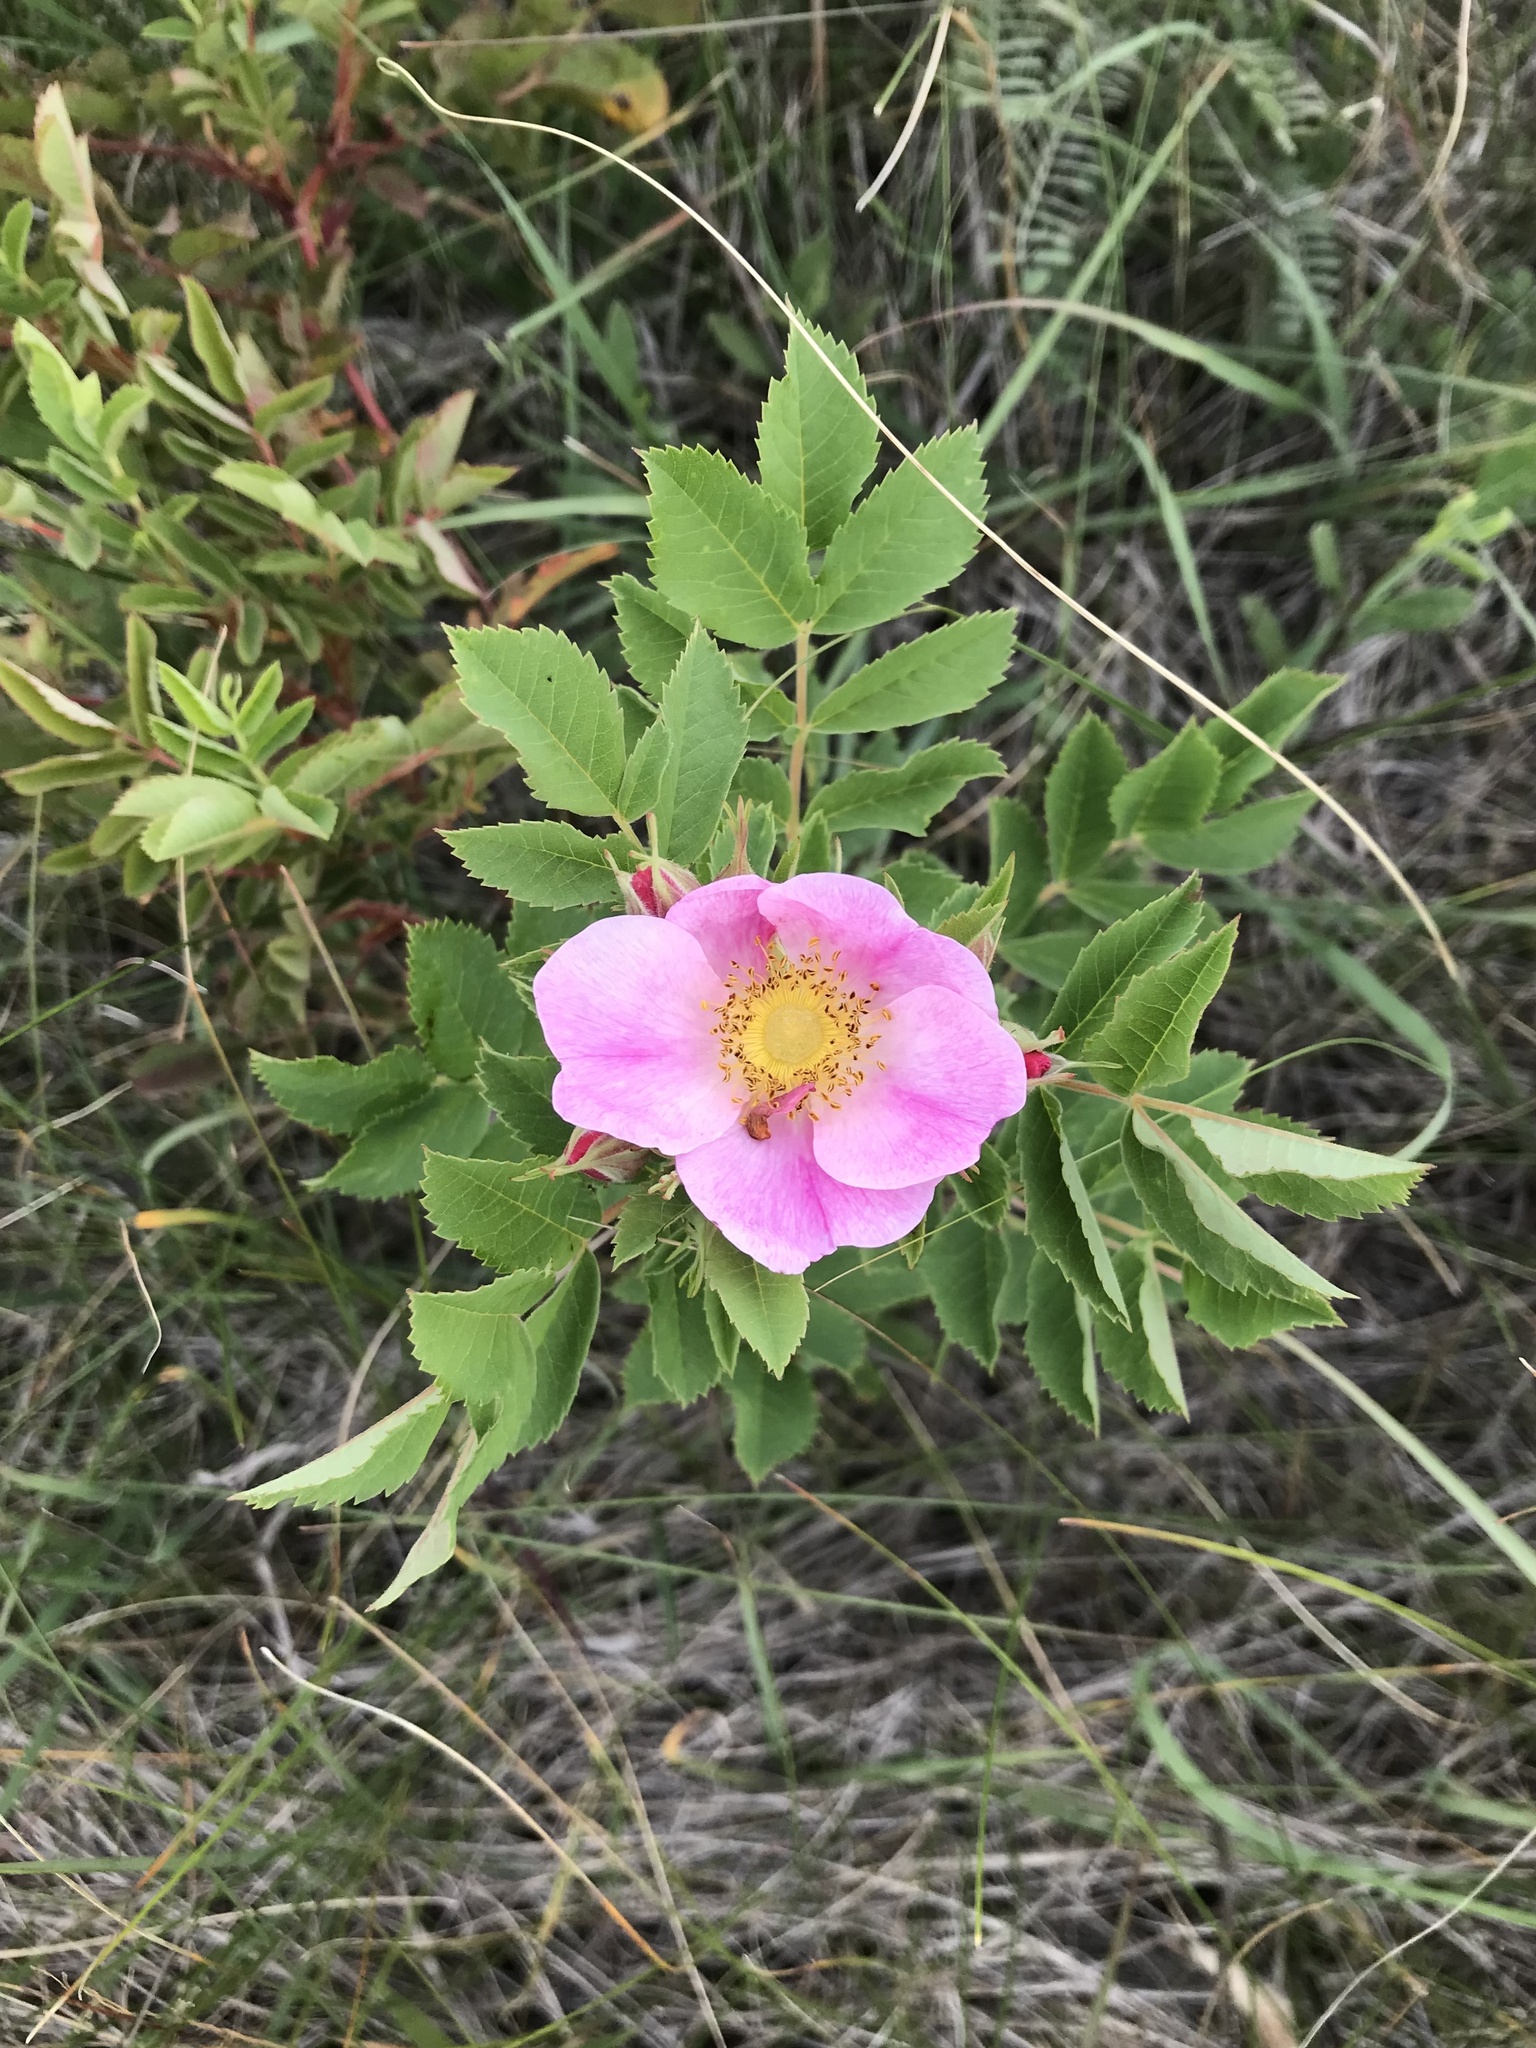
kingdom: Plantae
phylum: Tracheophyta
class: Magnoliopsida
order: Rosales
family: Rosaceae
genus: Rosa
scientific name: Rosa arkansana
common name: Prairie rose
